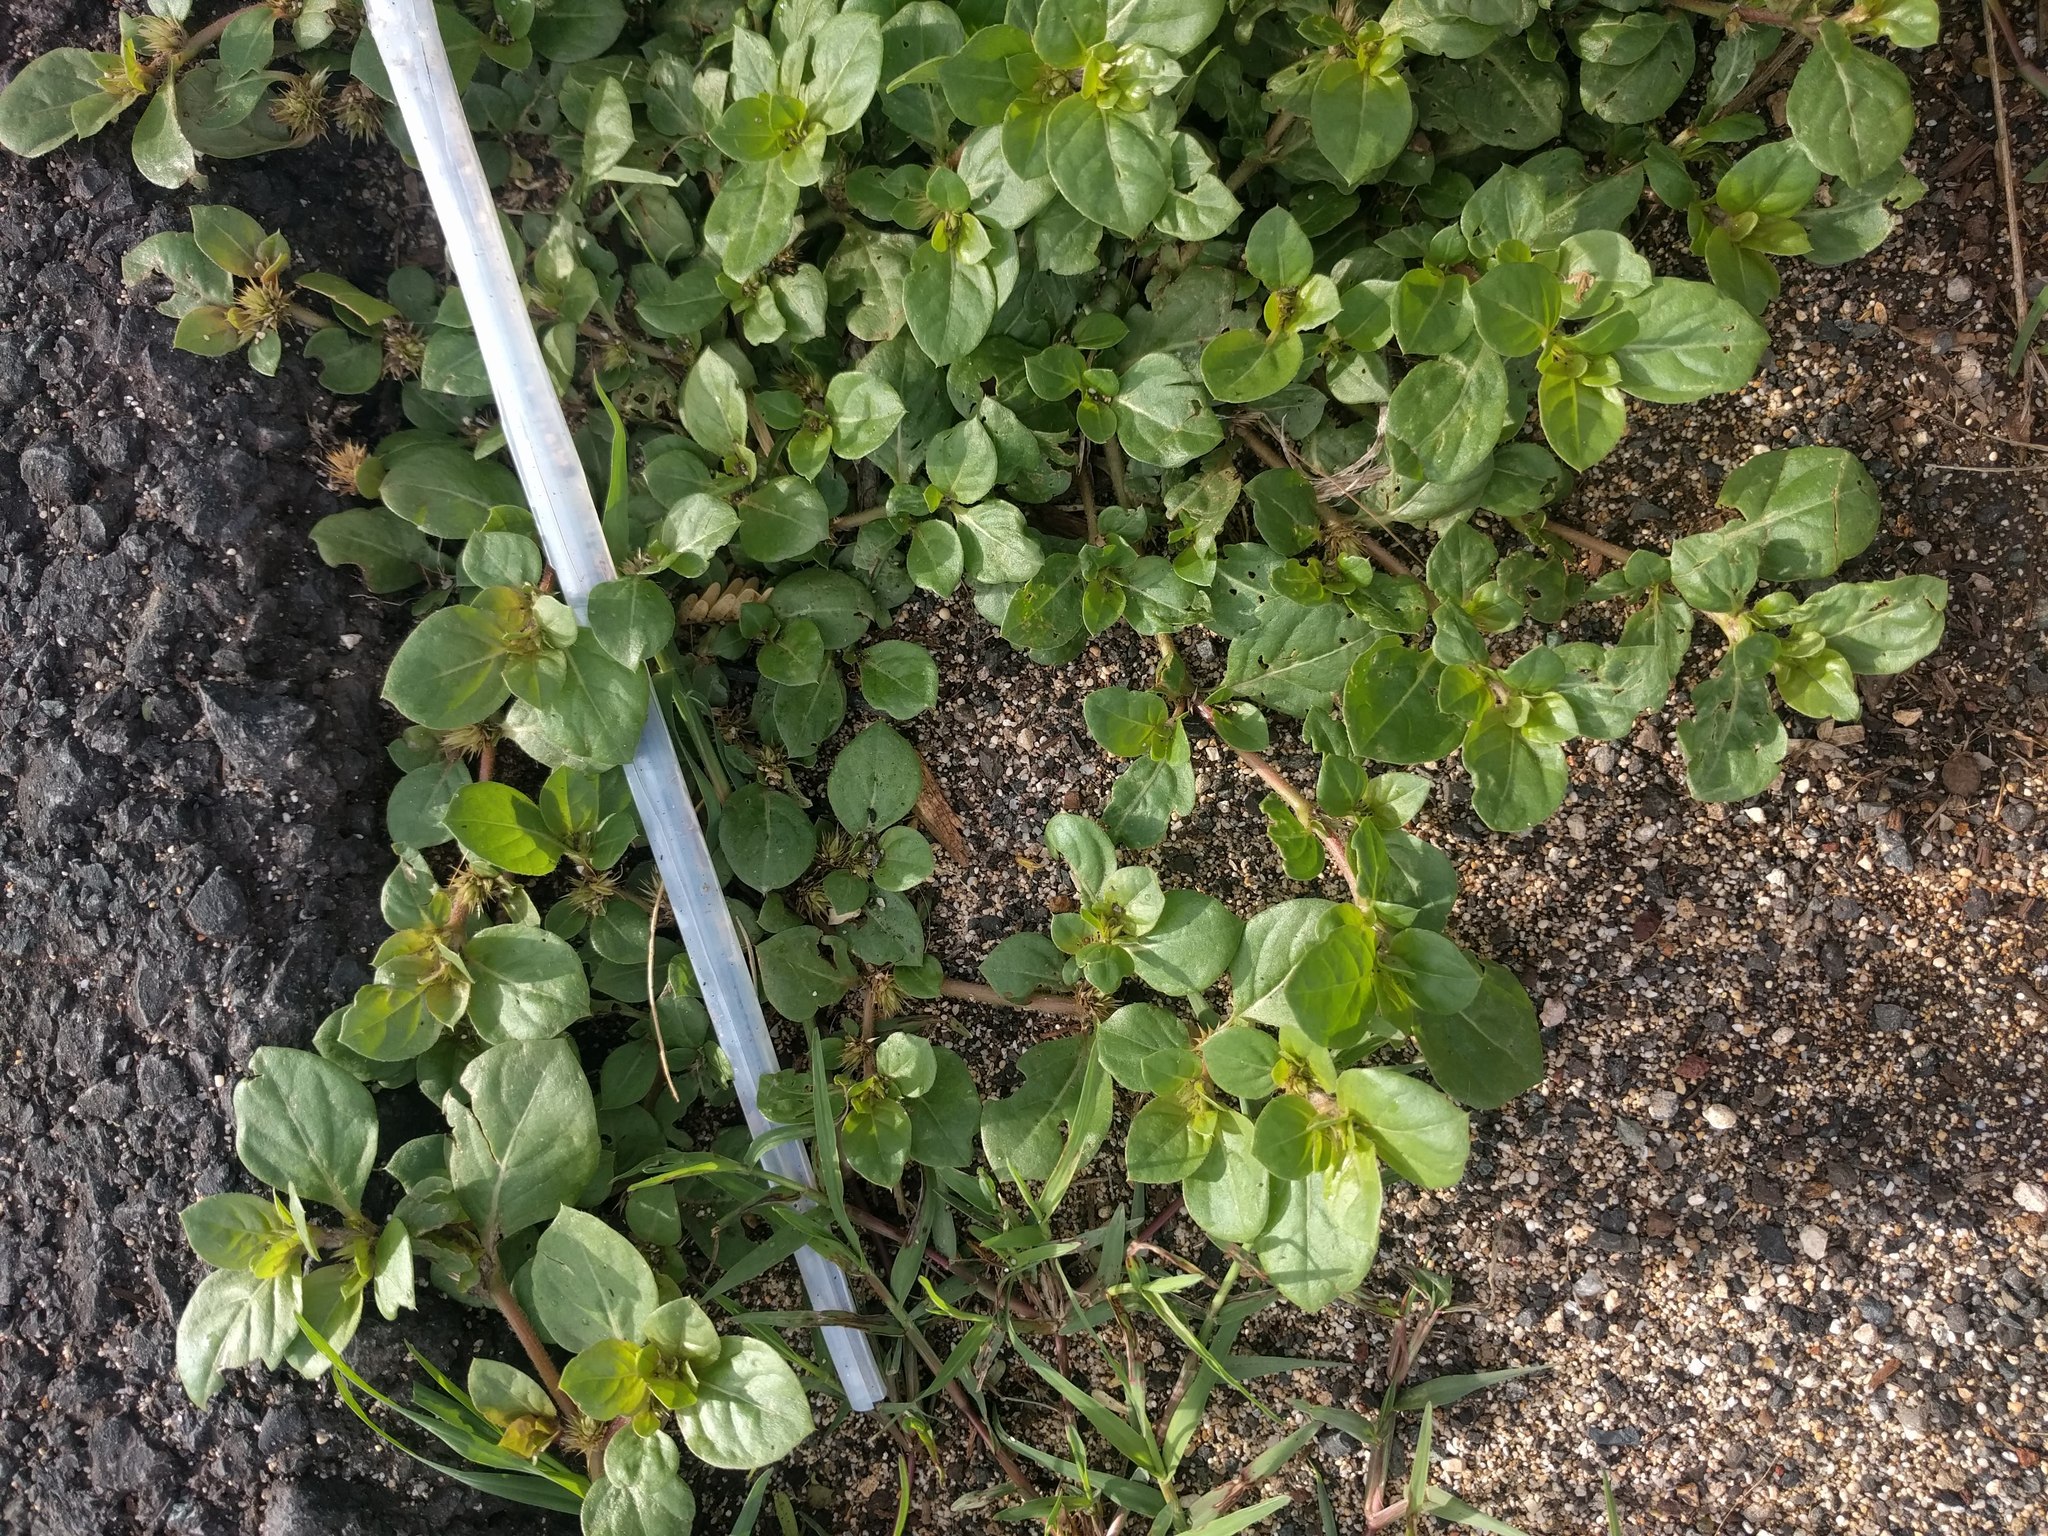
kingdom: Plantae
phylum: Tracheophyta
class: Magnoliopsida
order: Caryophyllales
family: Amaranthaceae
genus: Alternanthera
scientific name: Alternanthera pungens
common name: Khakiweed
